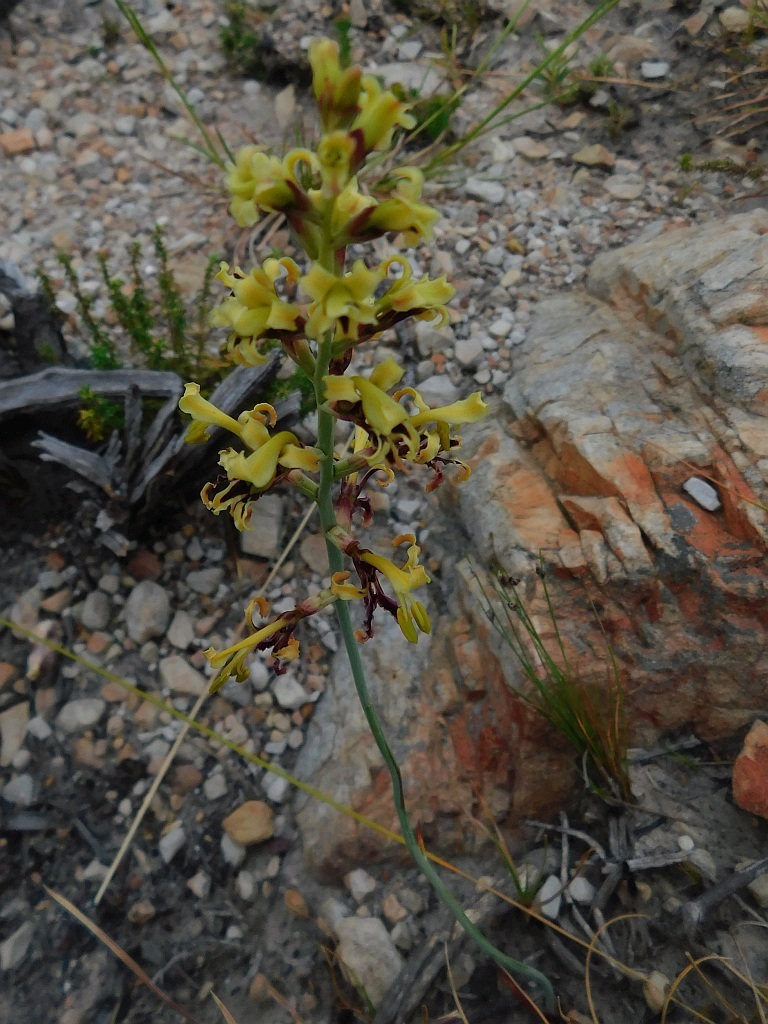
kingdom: Plantae
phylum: Tracheophyta
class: Liliopsida
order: Asparagales
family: Iridaceae
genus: Tritoniopsis
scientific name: Tritoniopsis parviflora
